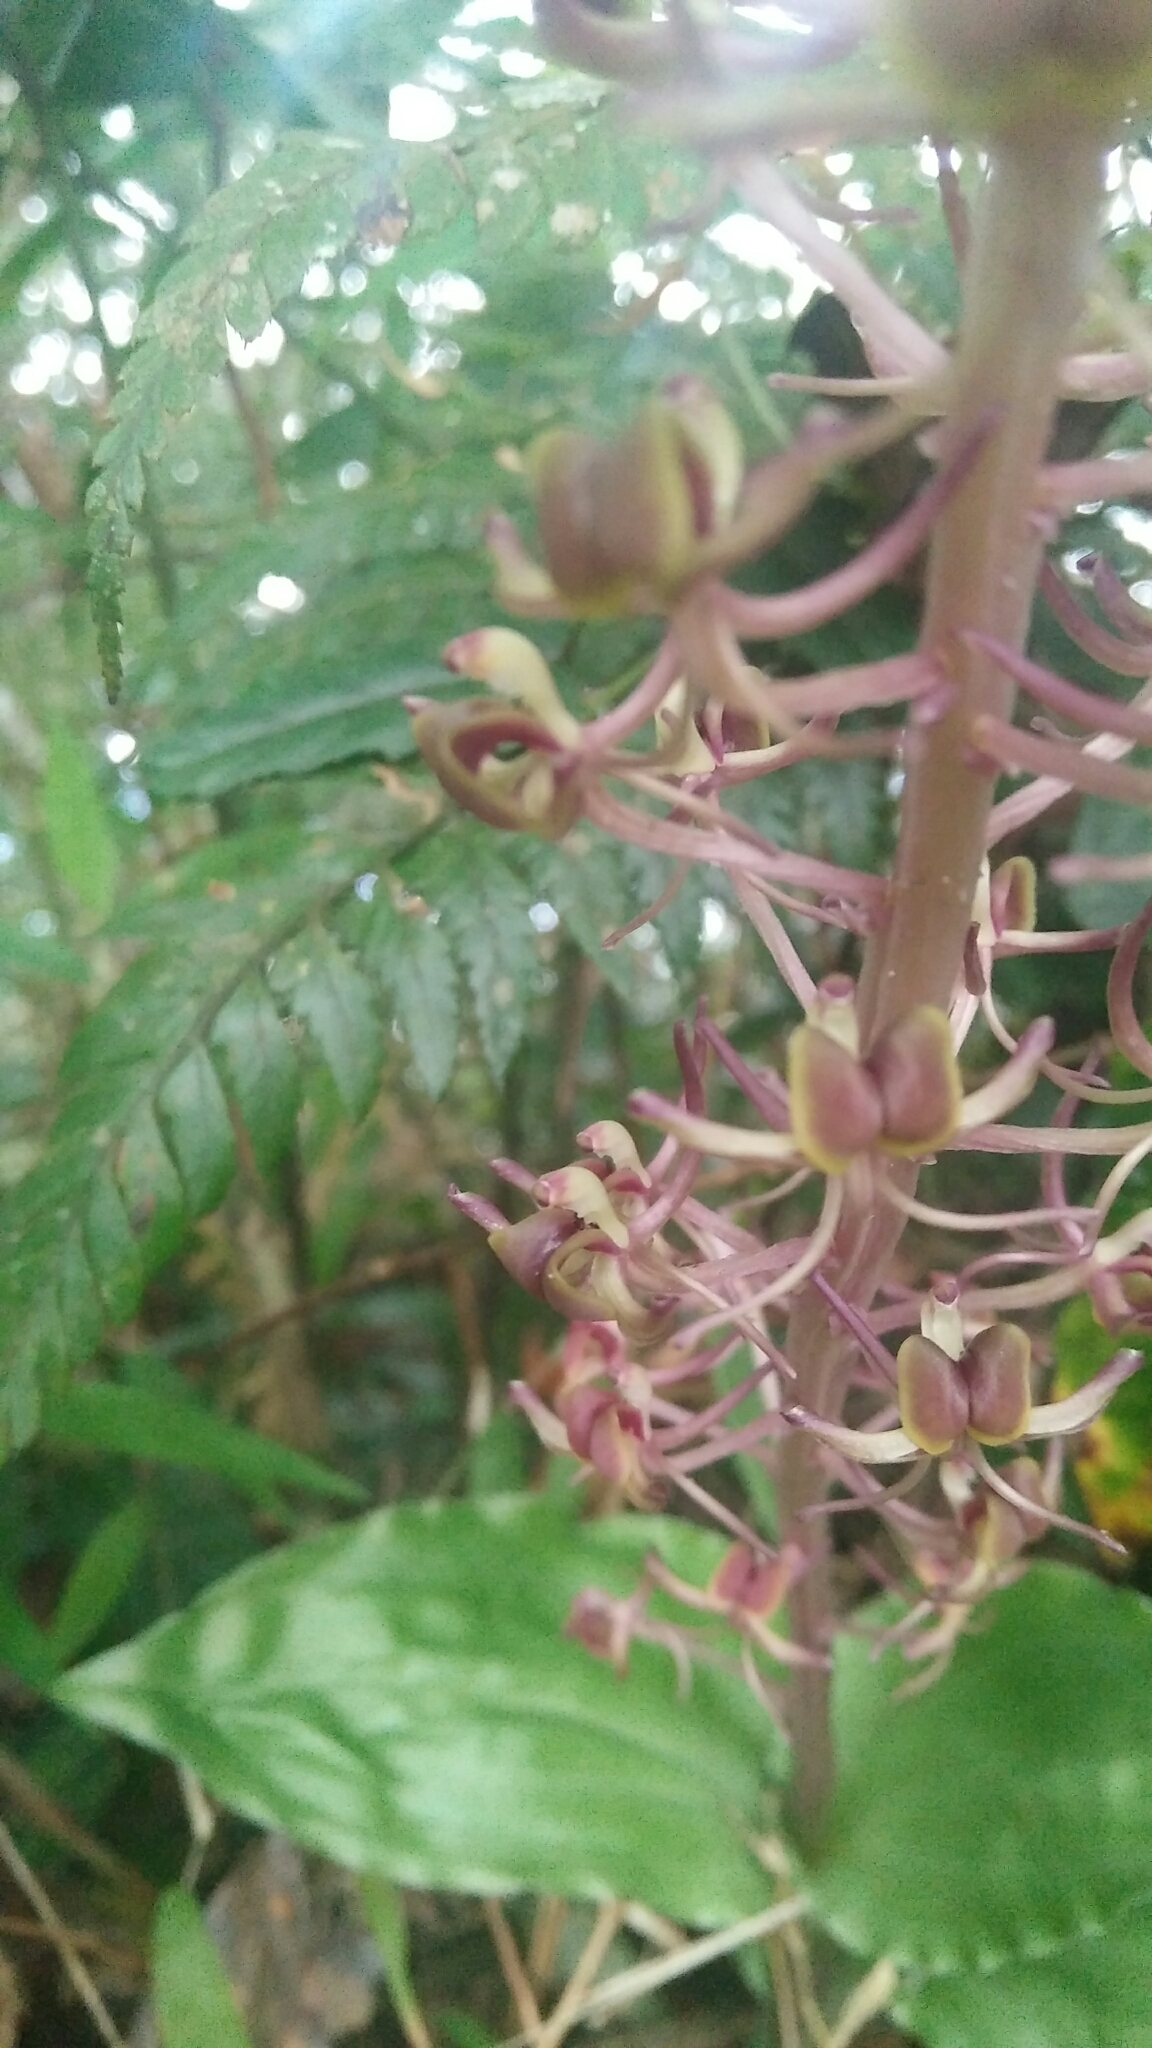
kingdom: Plantae
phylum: Tracheophyta
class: Liliopsida
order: Asparagales
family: Orchidaceae
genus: Liparis
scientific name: Liparis formosana
